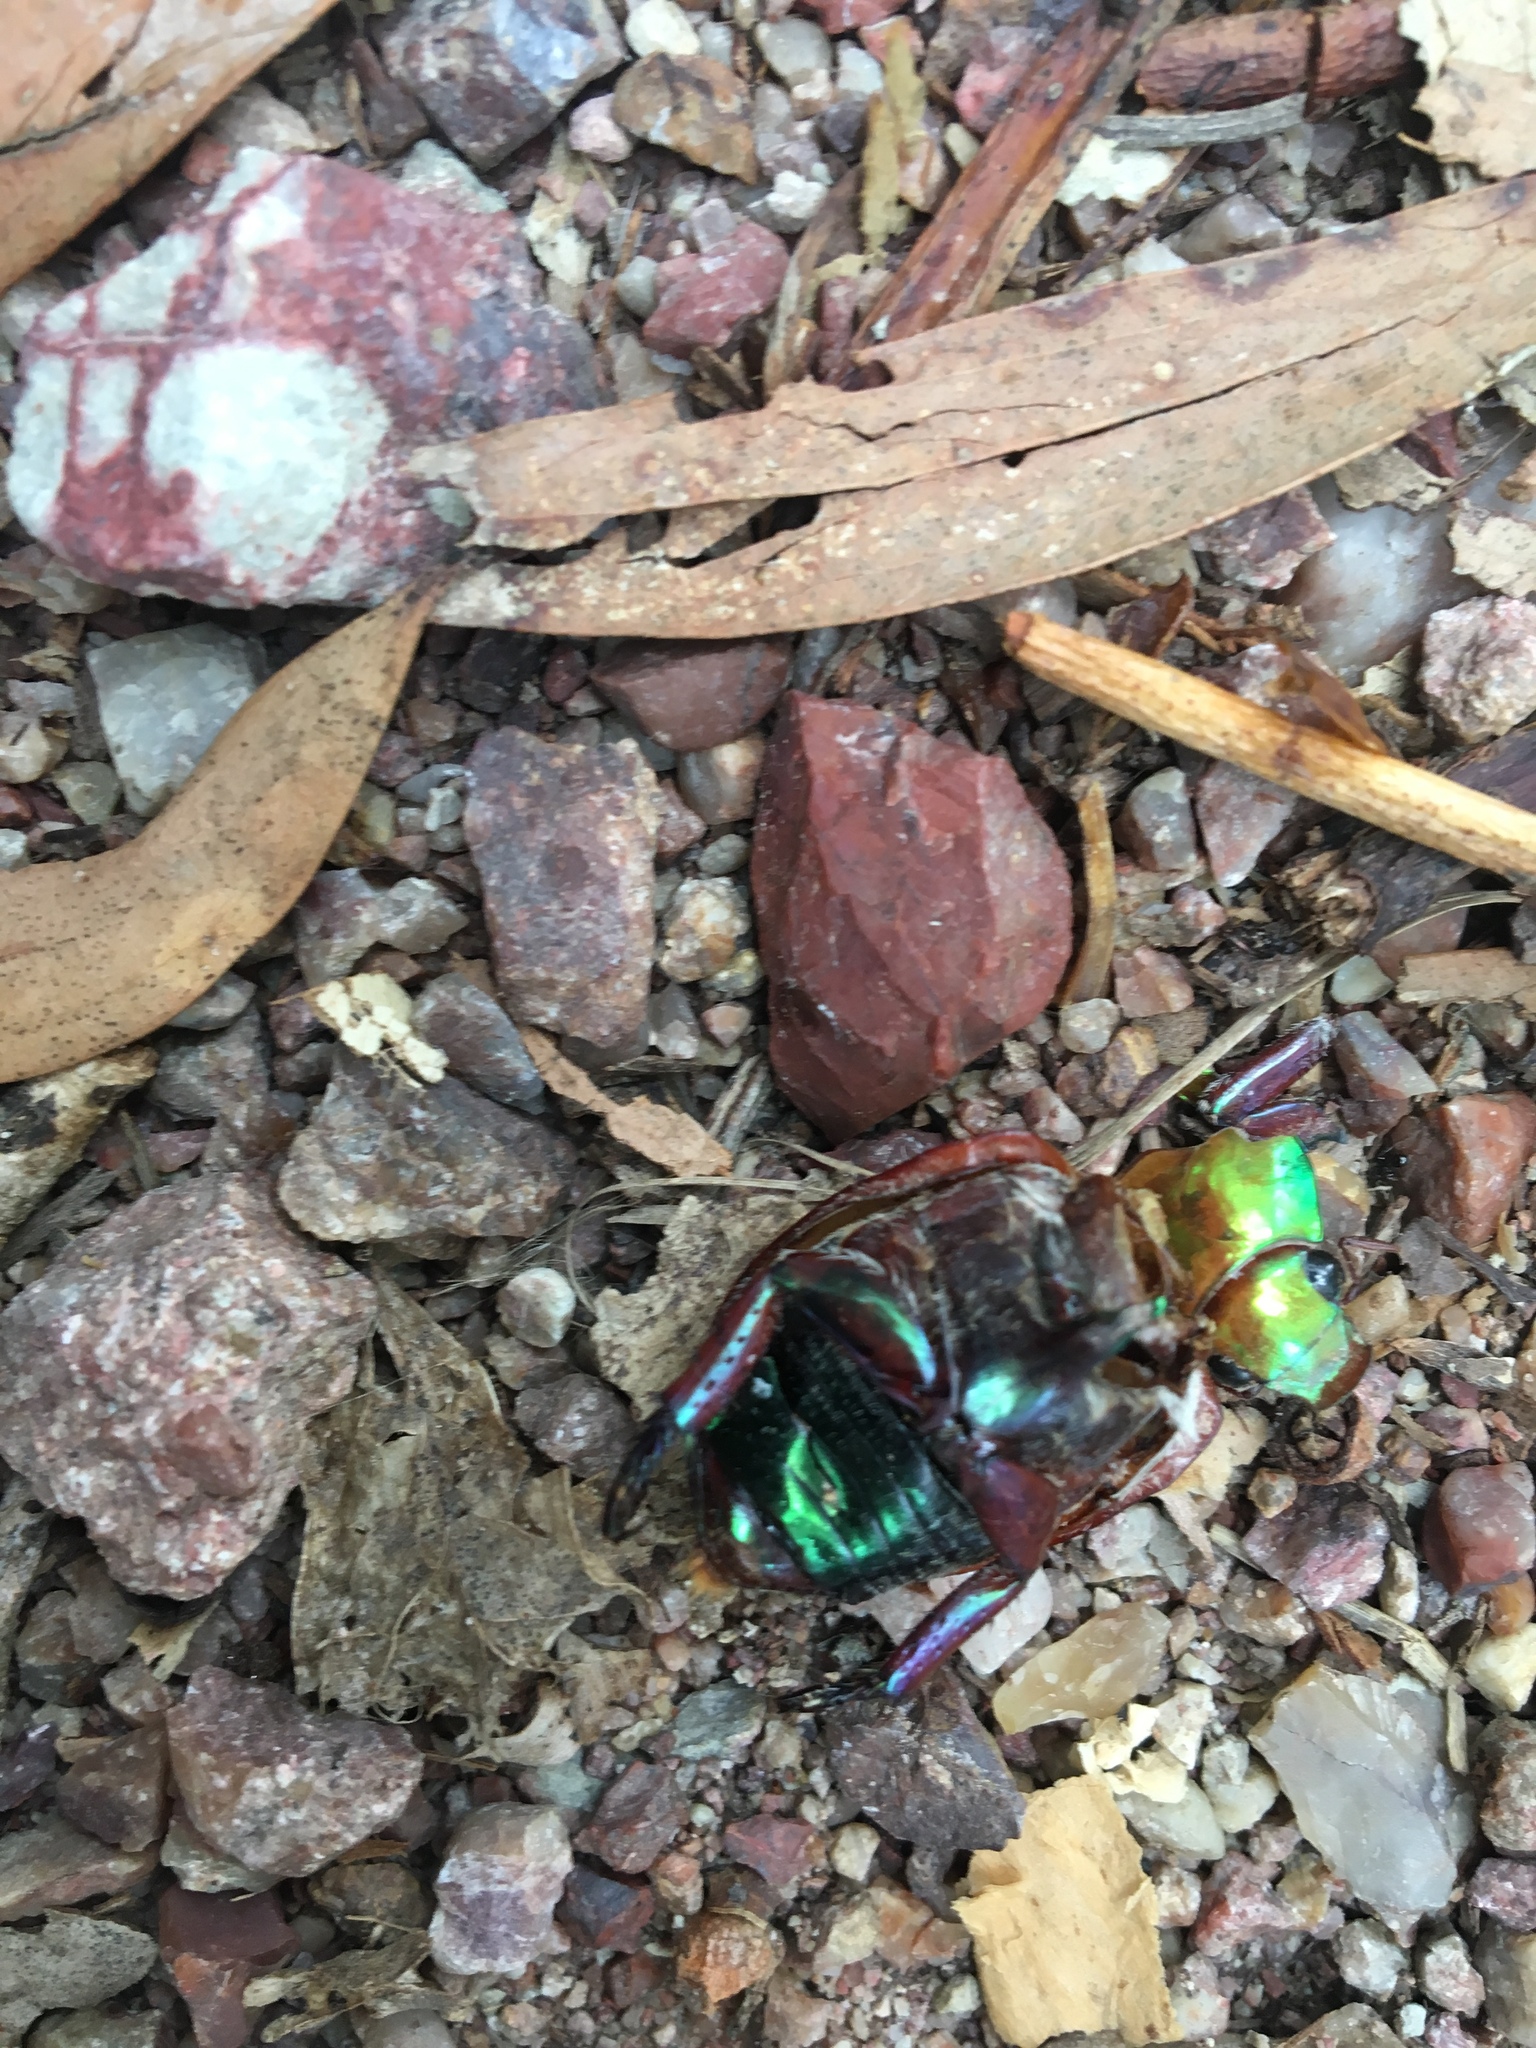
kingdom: Animalia
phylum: Arthropoda
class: Insecta
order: Coleoptera
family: Scarabaeidae
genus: Anoplognathus
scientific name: Anoplognathus olivieri
